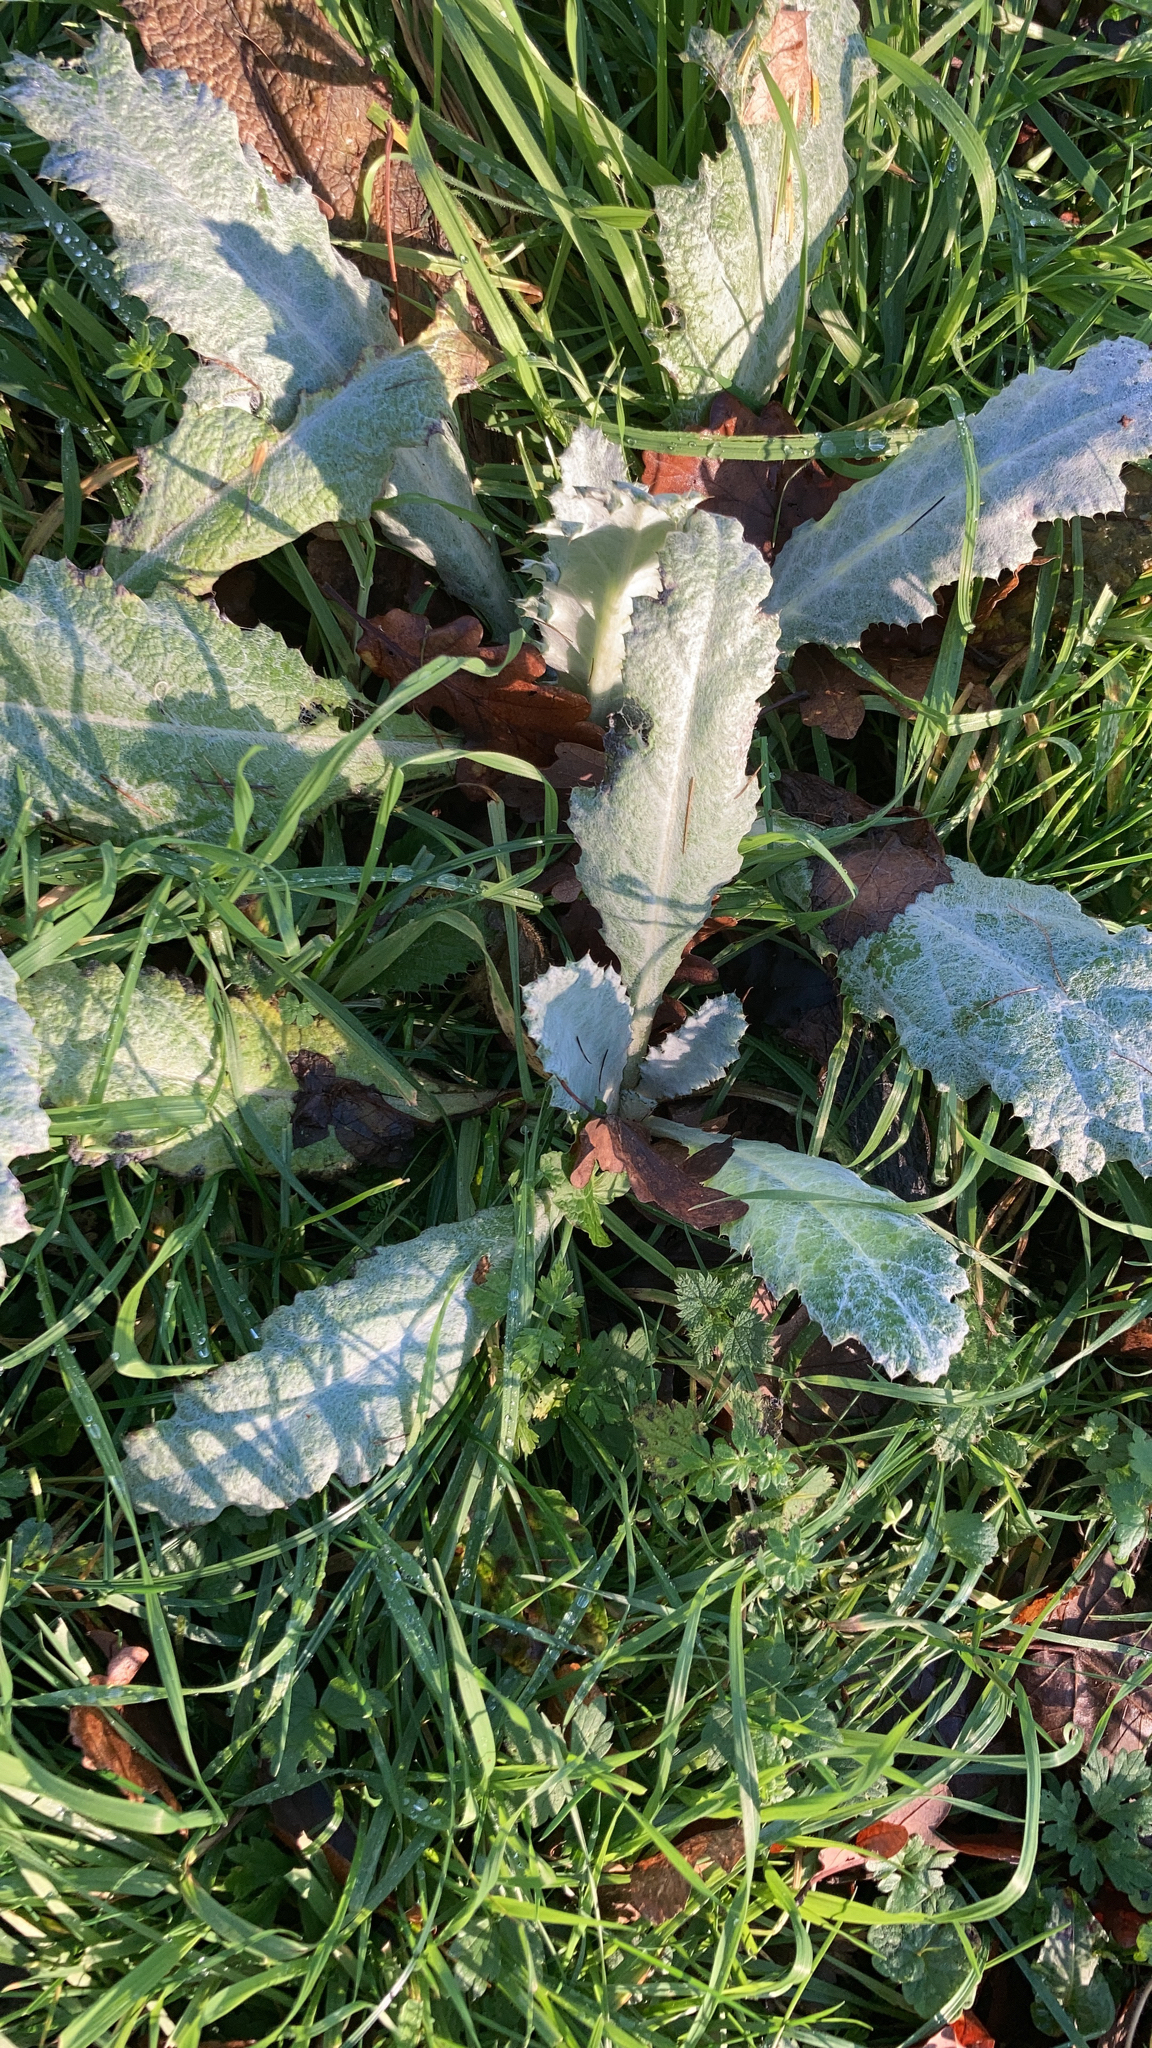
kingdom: Plantae
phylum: Tracheophyta
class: Magnoliopsida
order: Asterales
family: Asteraceae
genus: Onopordum
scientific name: Onopordum acanthium
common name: Scotch thistle
